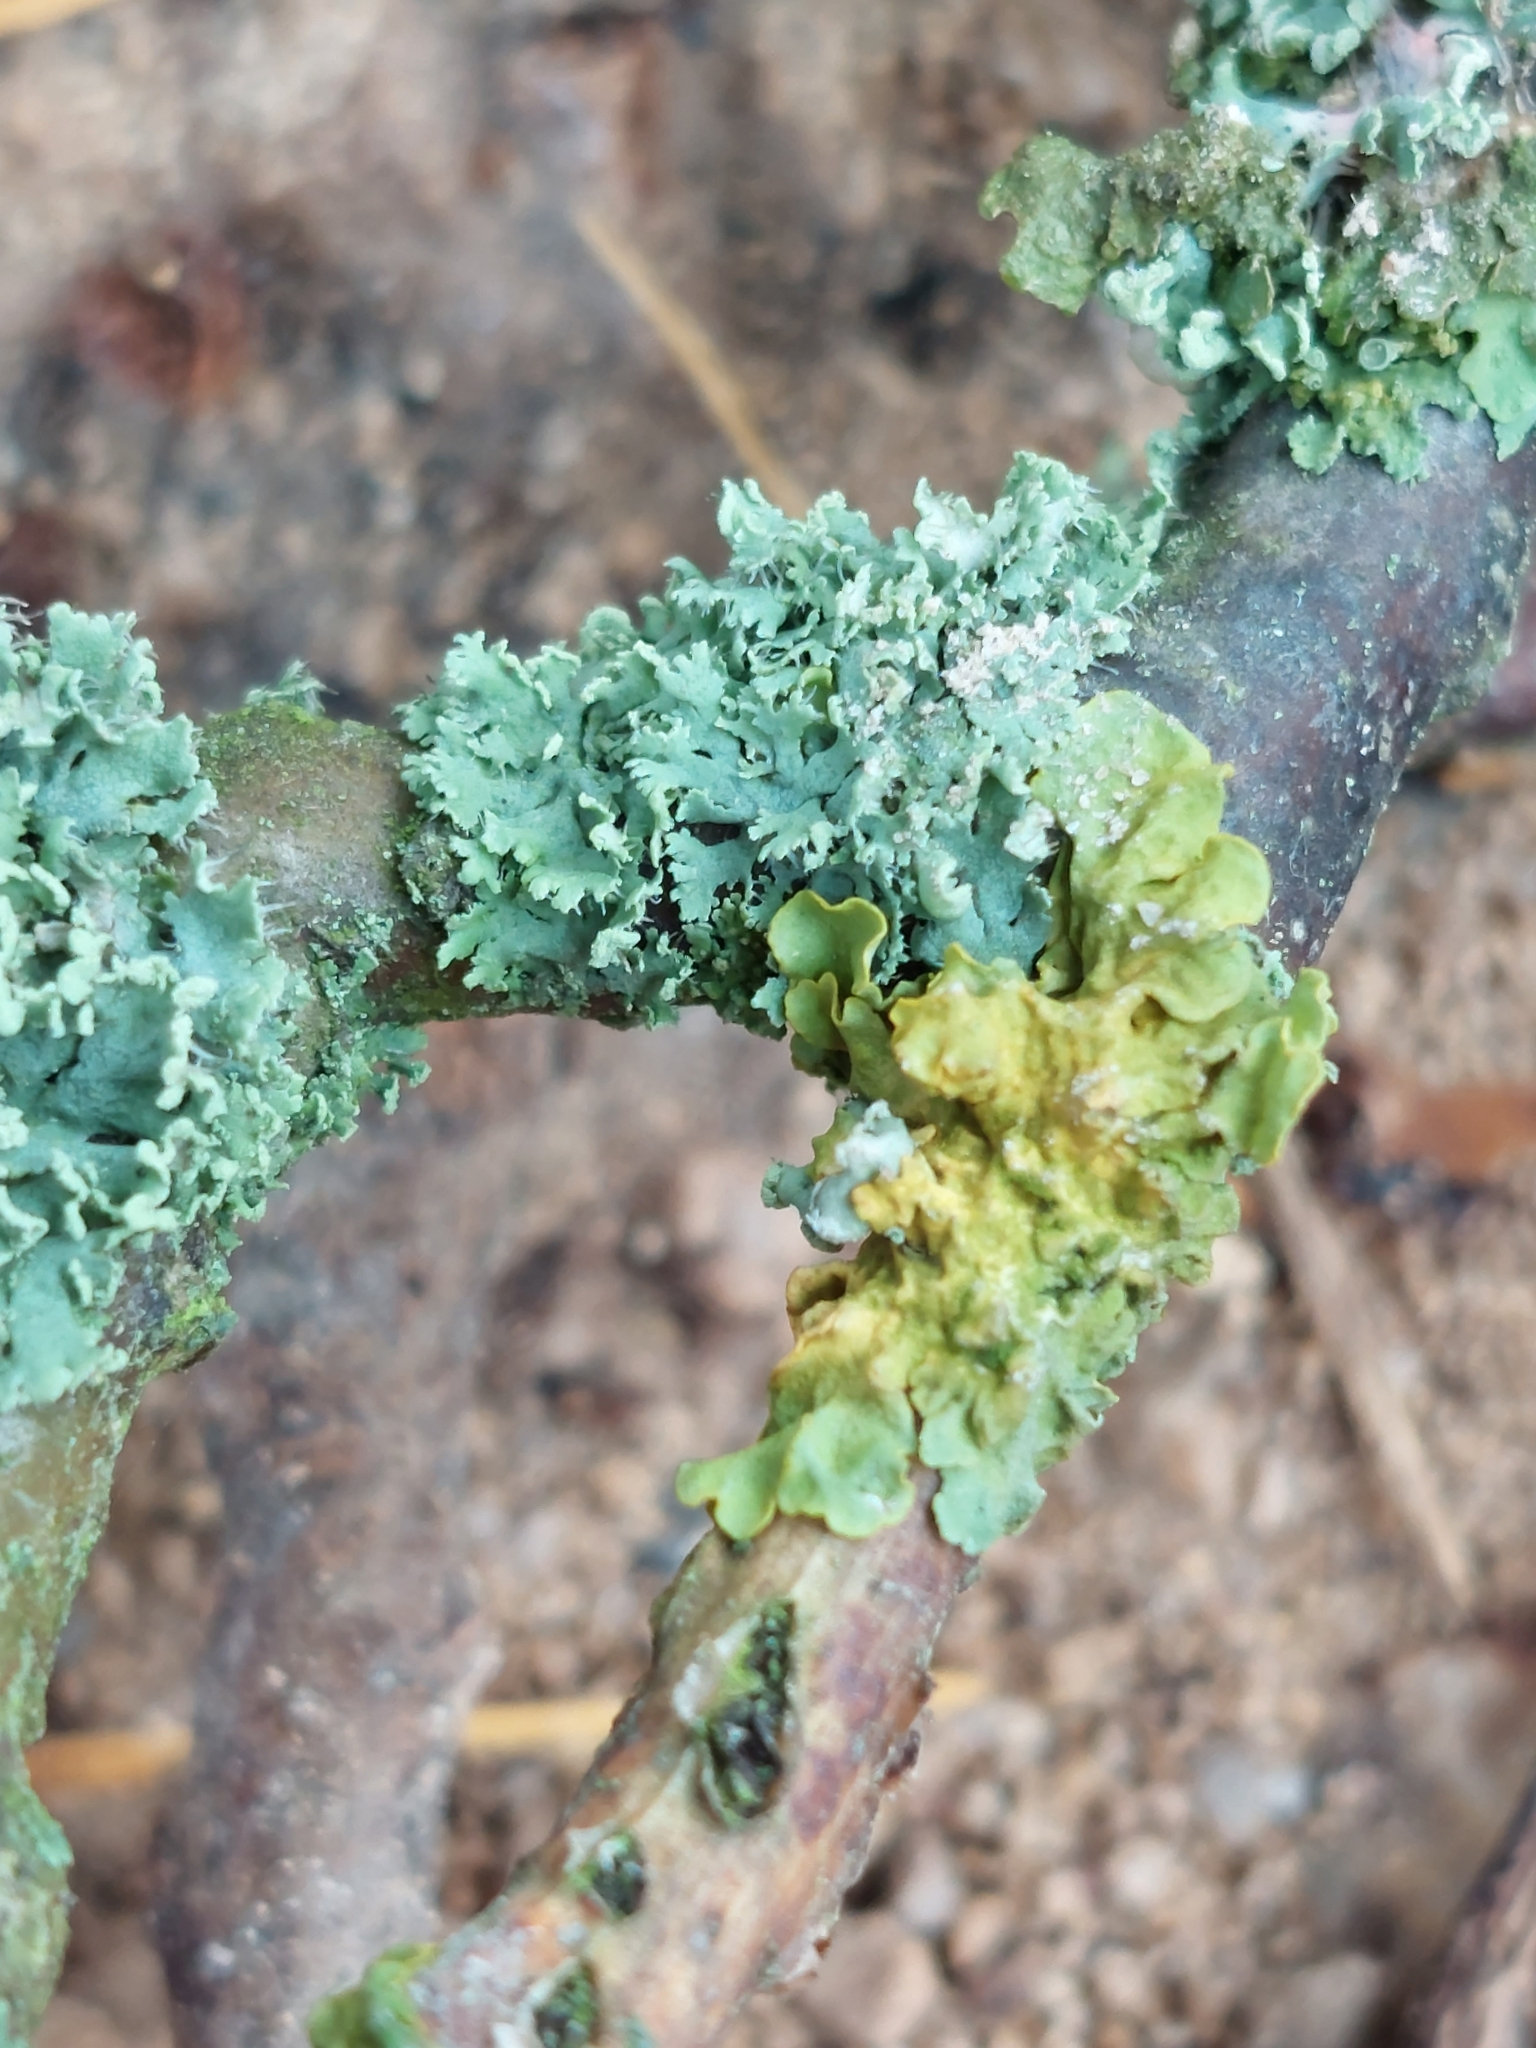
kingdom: Fungi
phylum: Ascomycota
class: Lecanoromycetes
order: Caliciales
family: Physciaceae
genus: Physcia
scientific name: Physcia tenella
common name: Fringed rosette lichen
